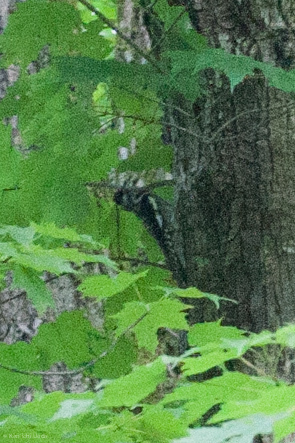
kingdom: Animalia
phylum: Chordata
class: Aves
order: Piciformes
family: Picidae
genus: Sphyrapicus
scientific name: Sphyrapicus varius
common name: Yellow-bellied sapsucker
